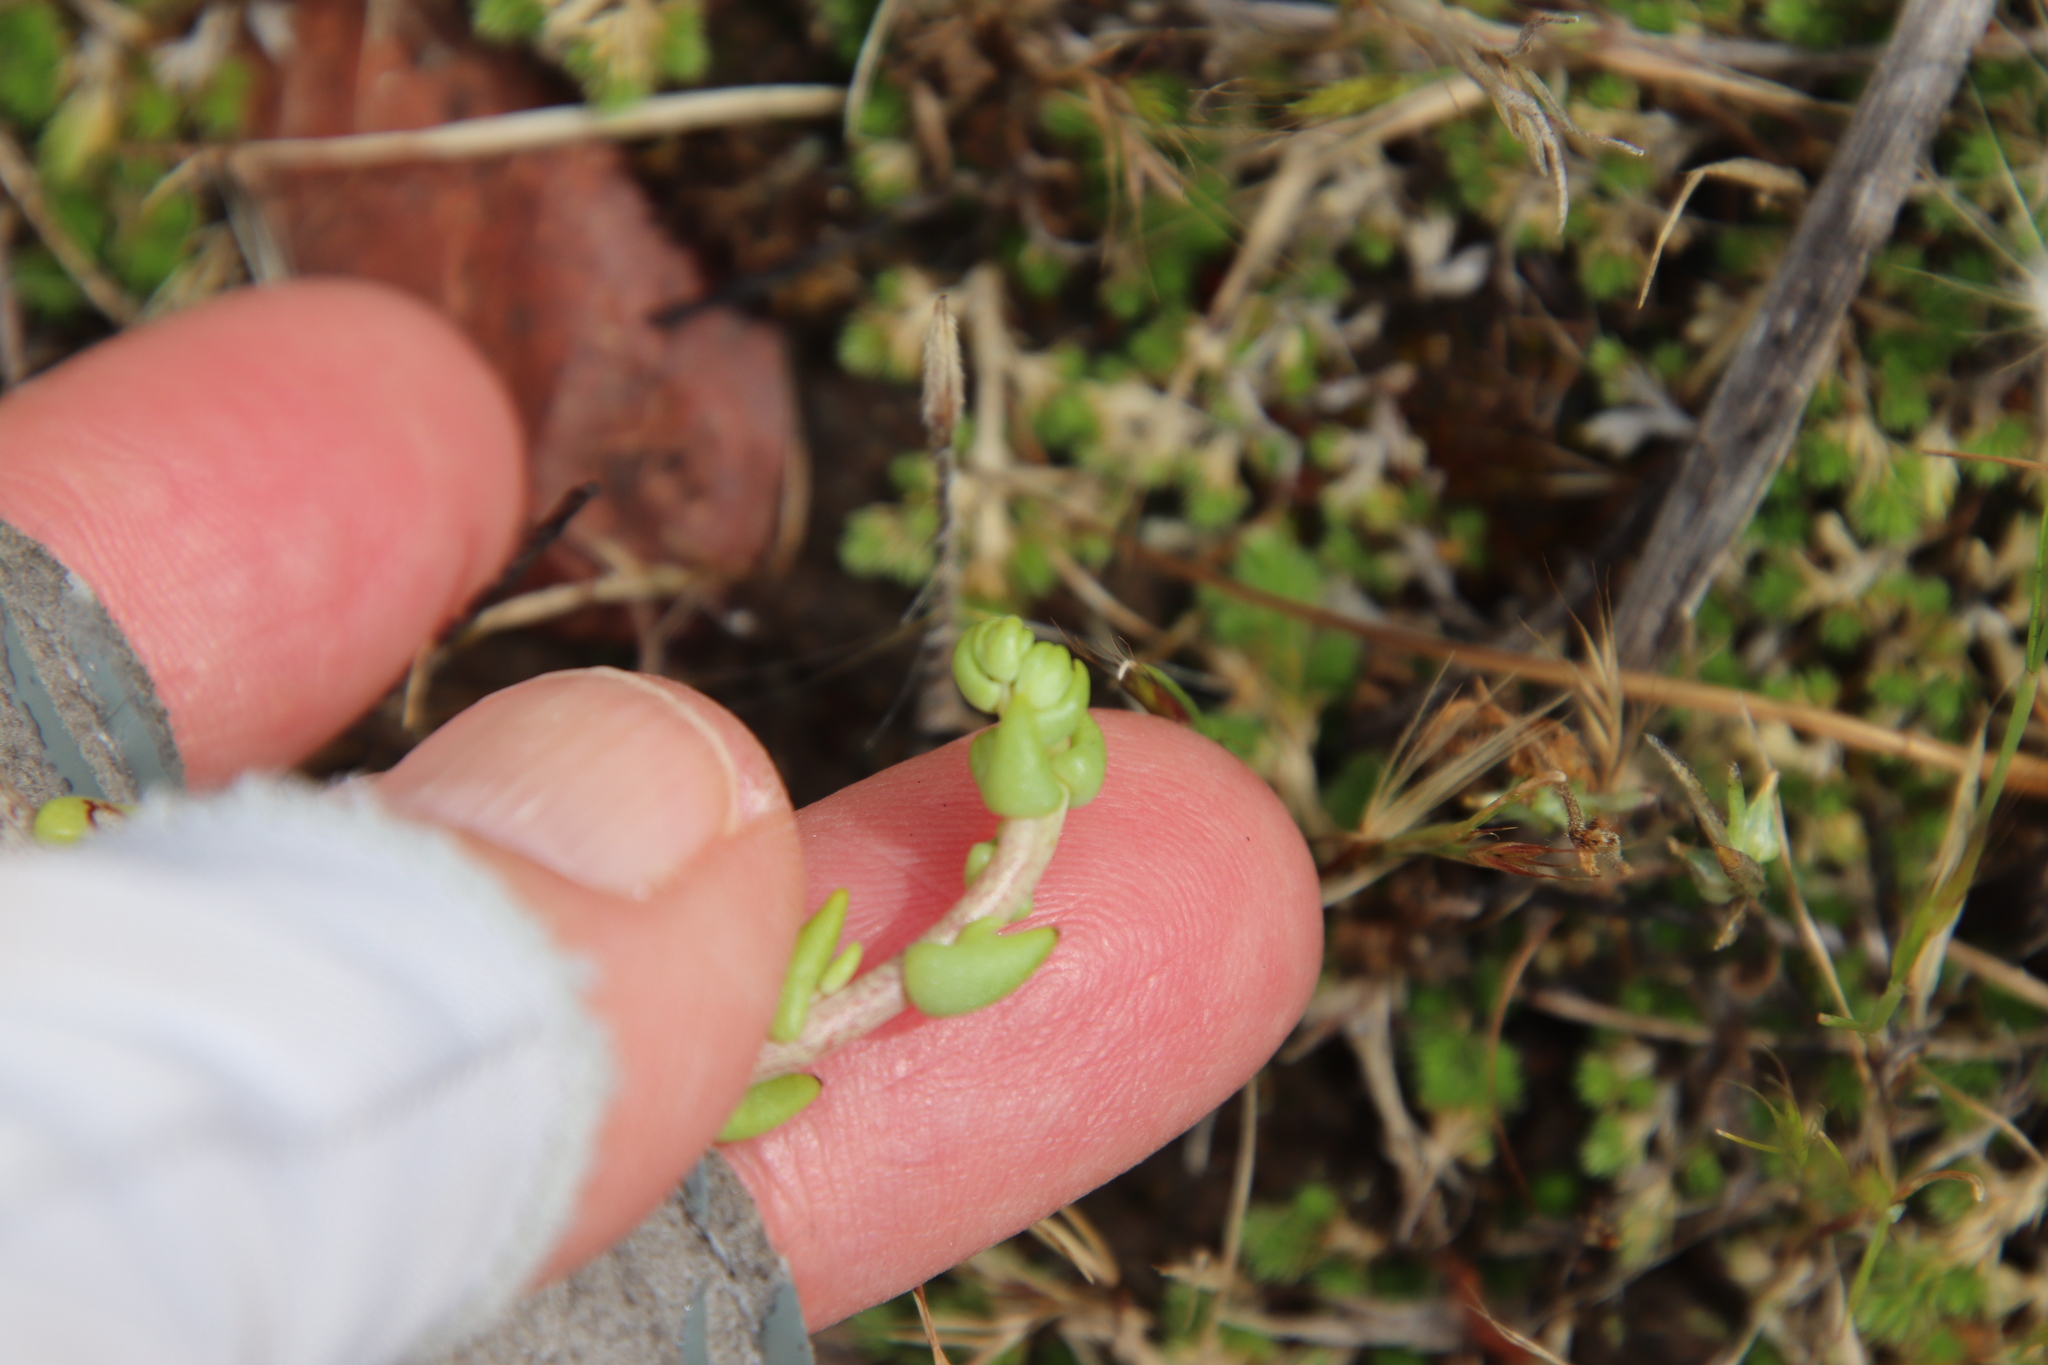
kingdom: Plantae
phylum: Tracheophyta
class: Magnoliopsida
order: Saxifragales
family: Crassulaceae
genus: Dudleya
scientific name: Dudleya variegata
